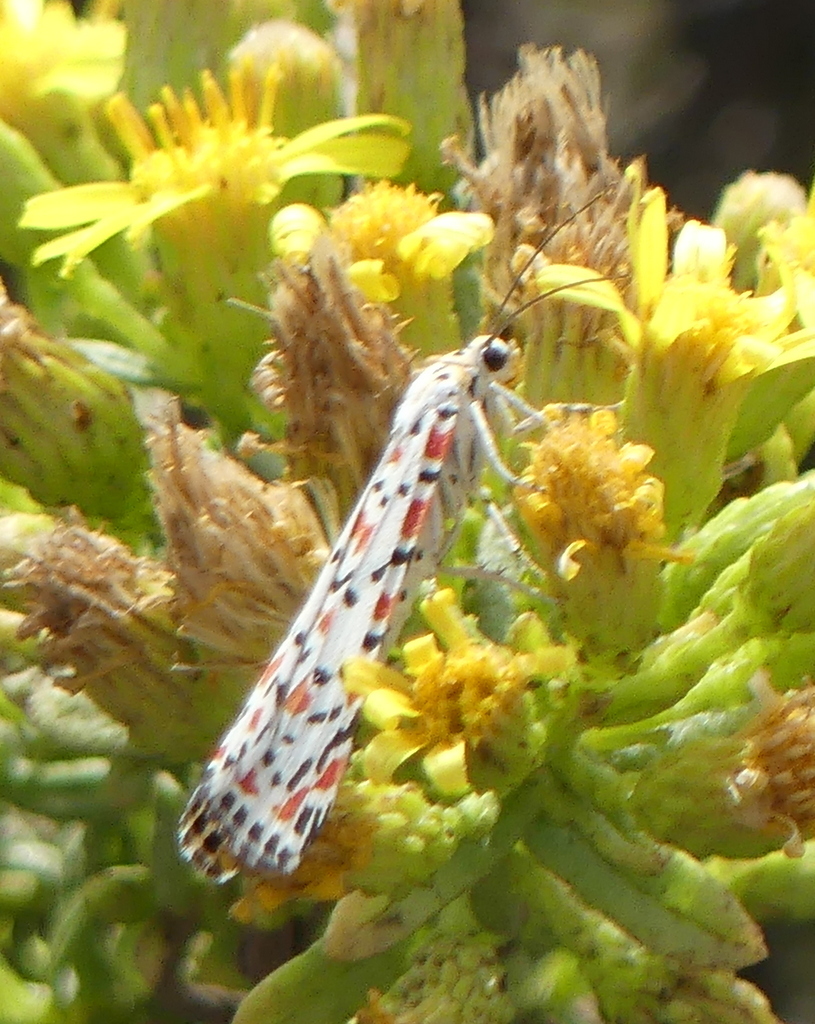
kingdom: Animalia
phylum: Arthropoda
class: Insecta
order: Lepidoptera
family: Erebidae
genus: Utetheisa
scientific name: Utetheisa pulchella
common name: Crimson speckled
